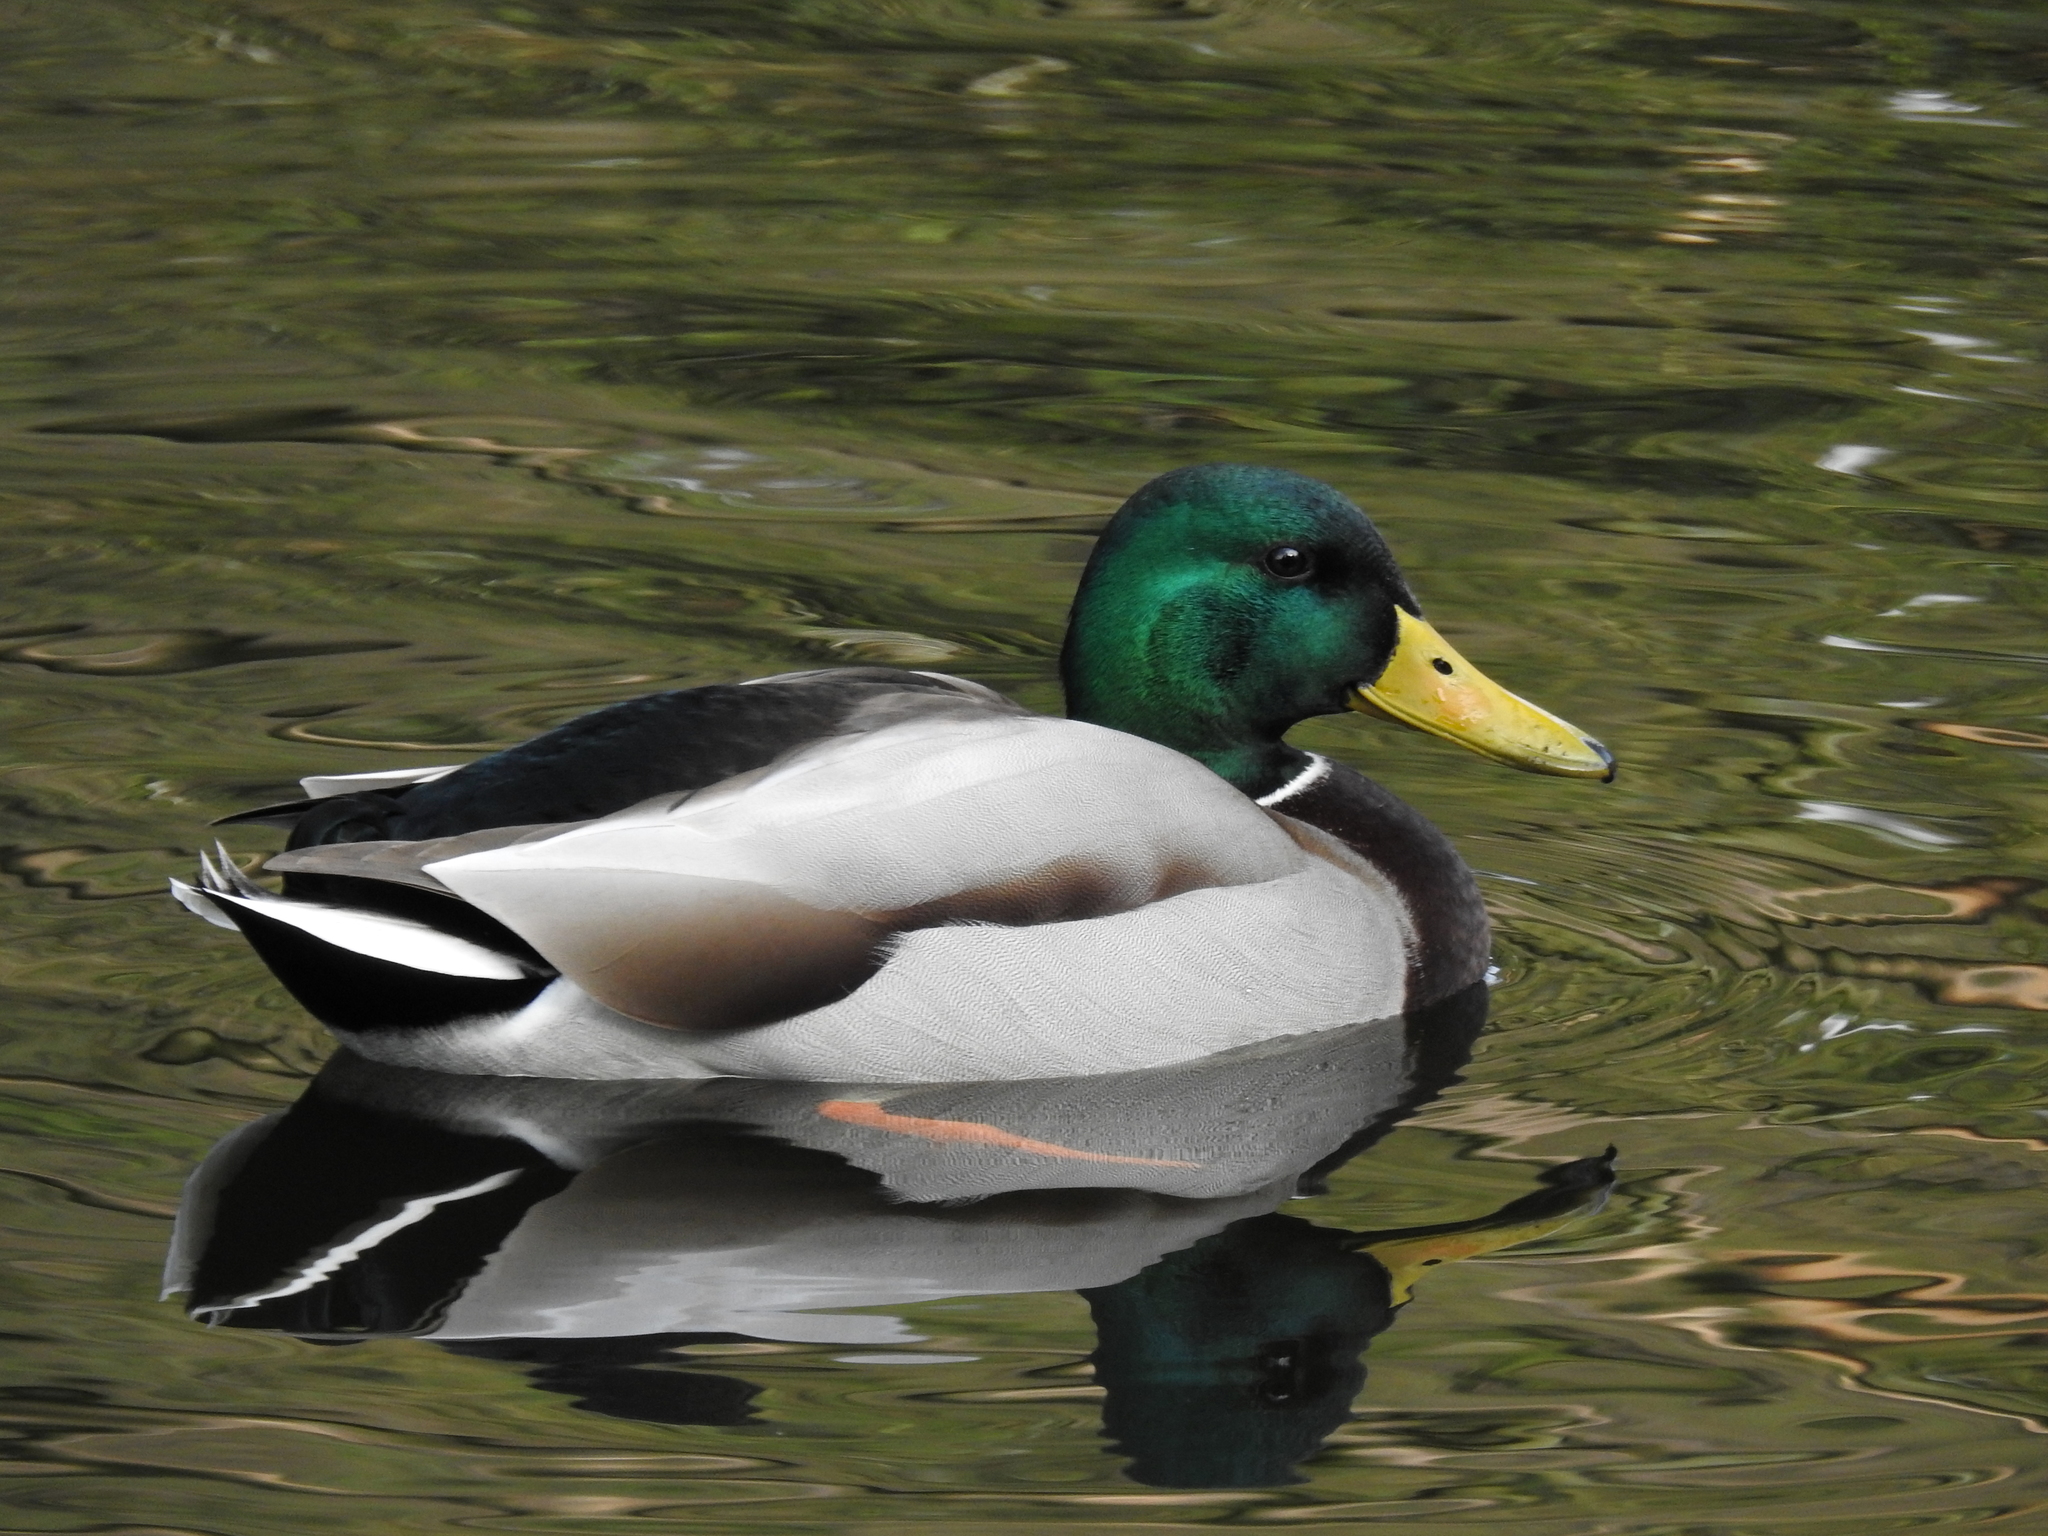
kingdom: Animalia
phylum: Chordata
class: Aves
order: Anseriformes
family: Anatidae
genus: Anas
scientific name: Anas platyrhynchos
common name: Mallard
